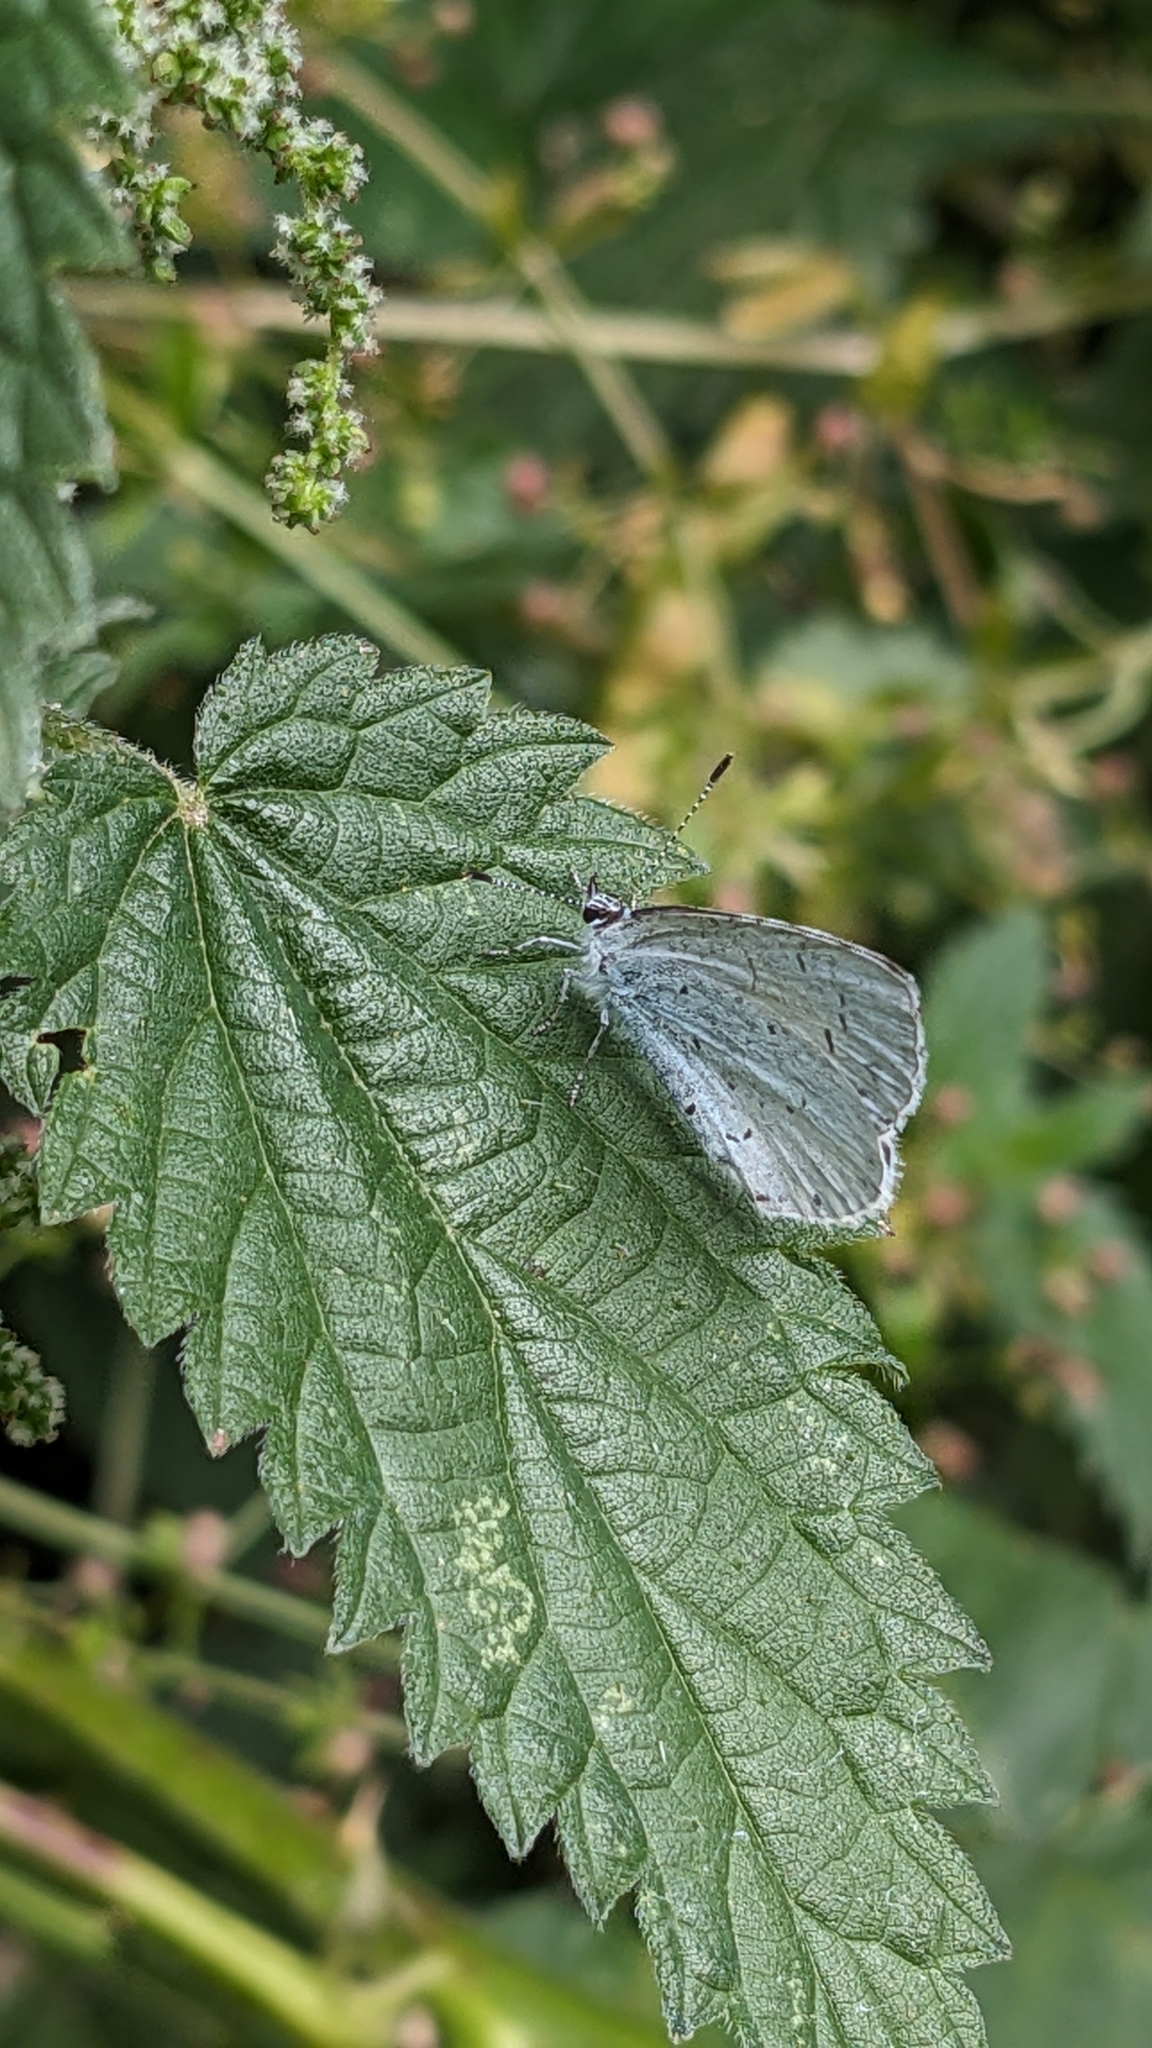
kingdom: Animalia
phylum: Arthropoda
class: Insecta
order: Lepidoptera
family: Lycaenidae
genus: Celastrina
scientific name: Celastrina argiolus
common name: Holly blue
